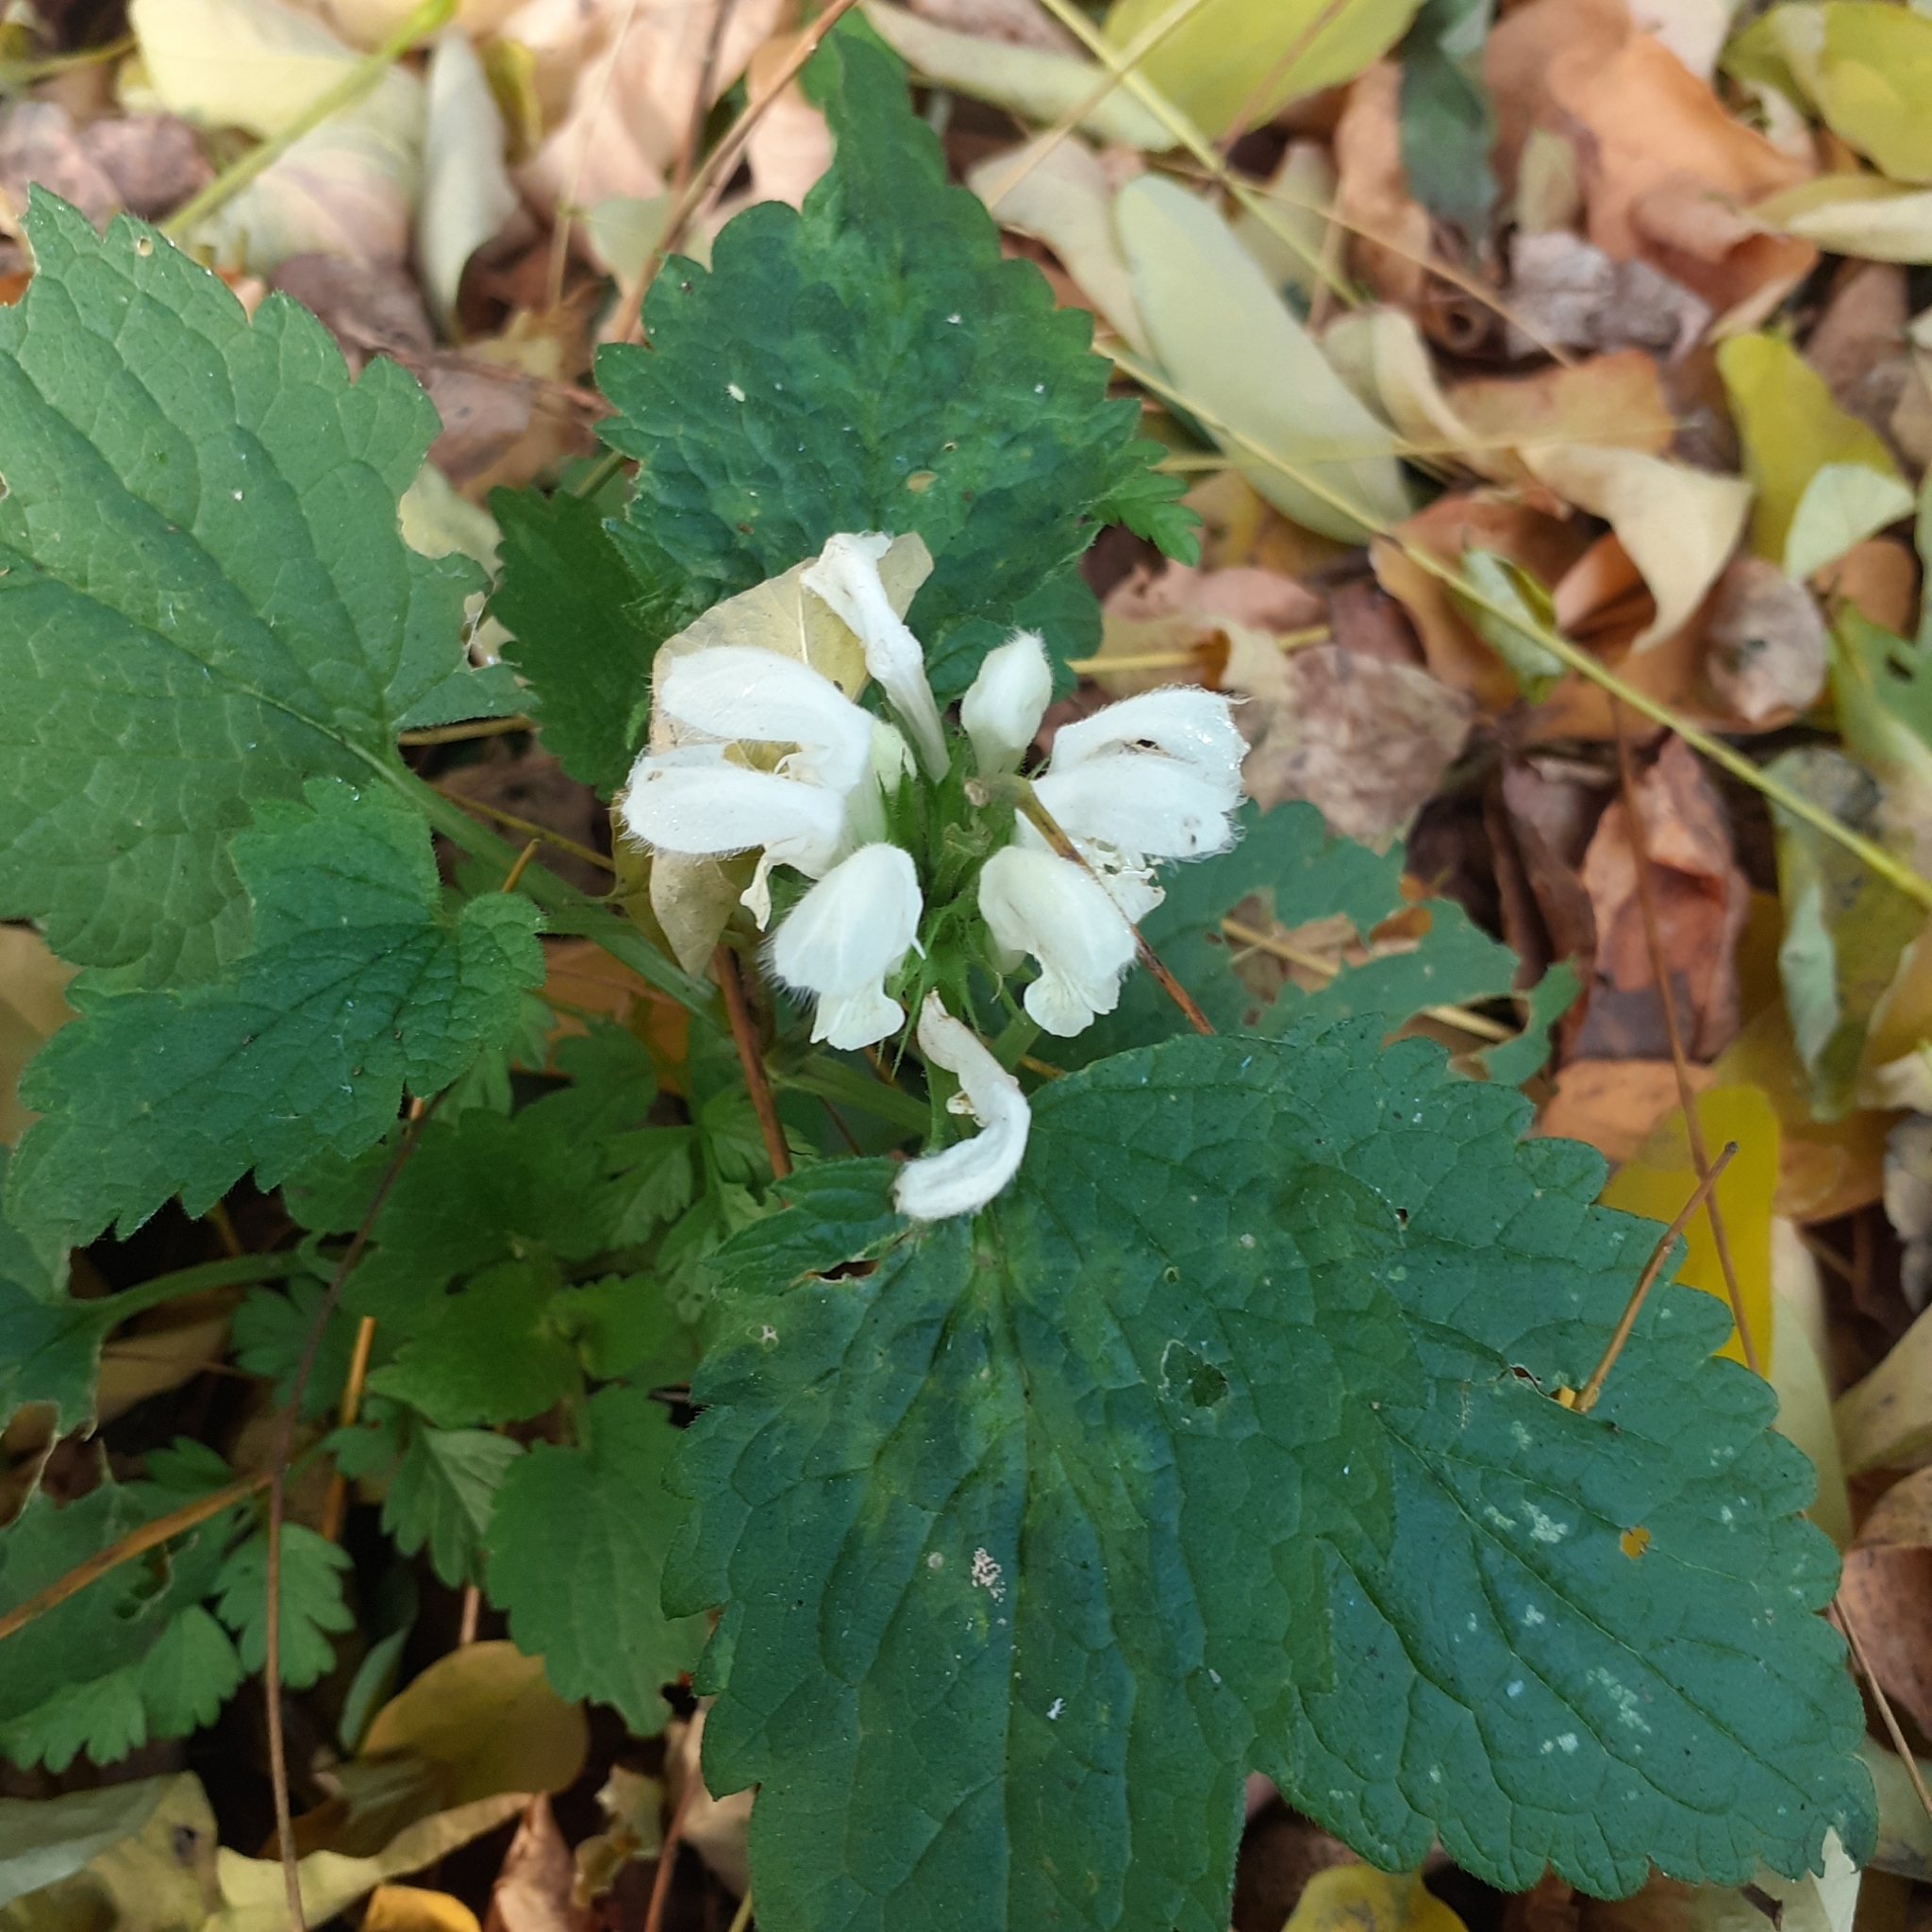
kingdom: Plantae
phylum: Tracheophyta
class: Magnoliopsida
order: Lamiales
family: Lamiaceae
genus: Lamium
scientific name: Lamium album
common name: White dead-nettle
